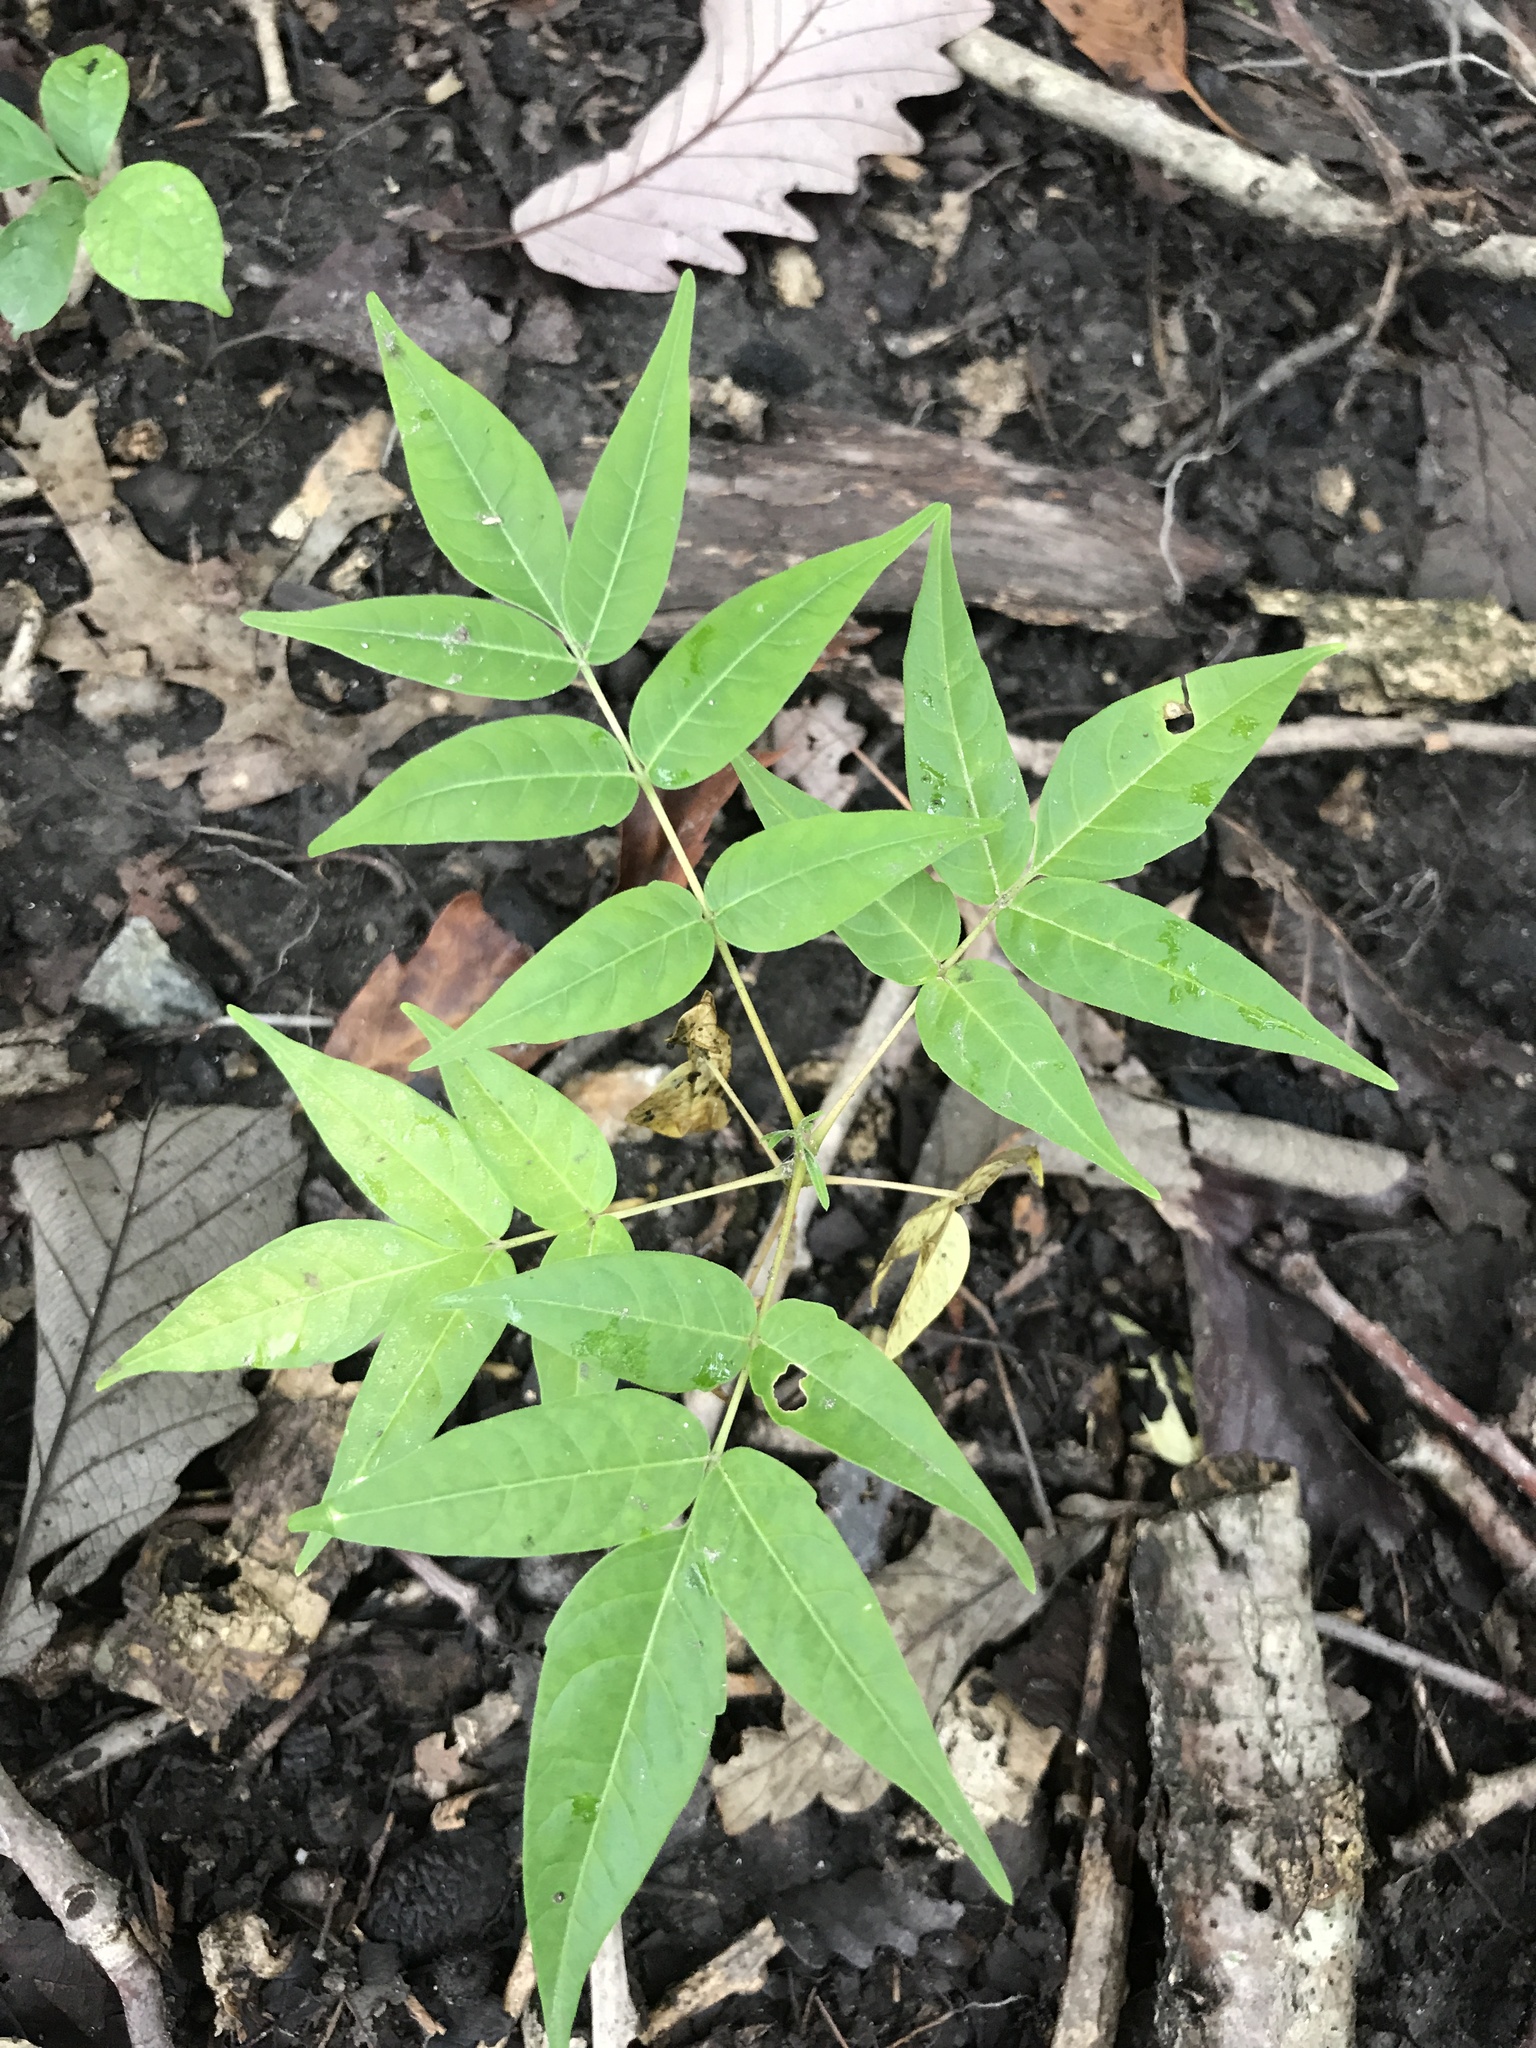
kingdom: Plantae
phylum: Tracheophyta
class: Magnoliopsida
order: Sapindales
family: Simaroubaceae
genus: Ailanthus
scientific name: Ailanthus altissima
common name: Tree-of-heaven
